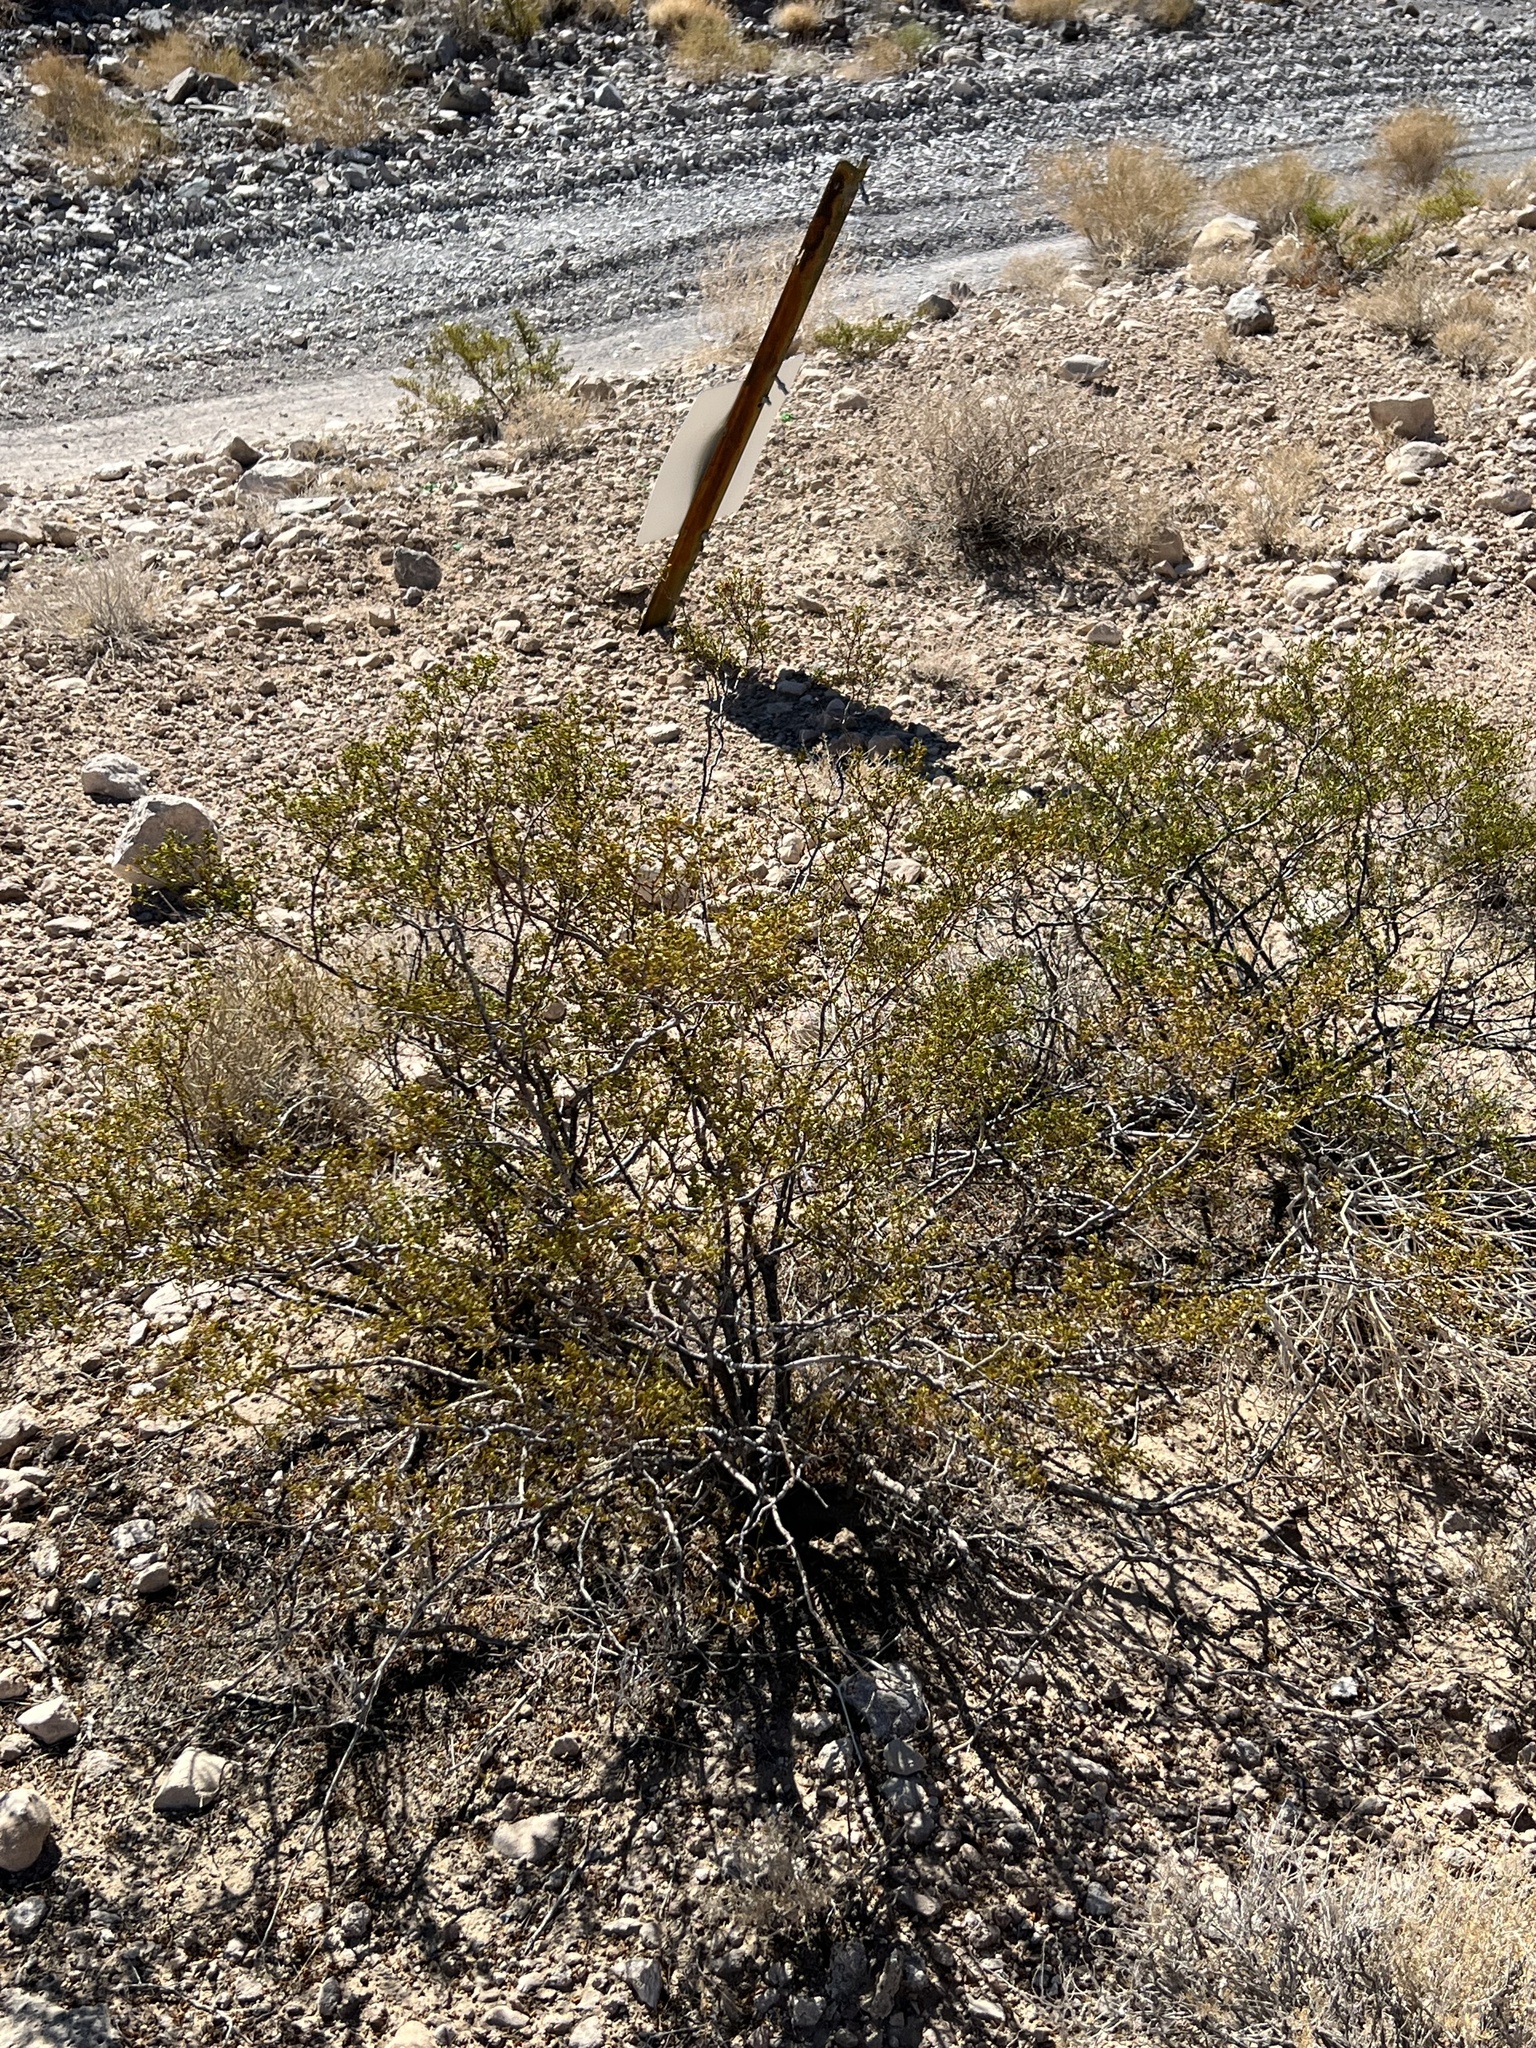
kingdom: Plantae
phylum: Tracheophyta
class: Magnoliopsida
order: Zygophyllales
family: Zygophyllaceae
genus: Larrea
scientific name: Larrea tridentata
